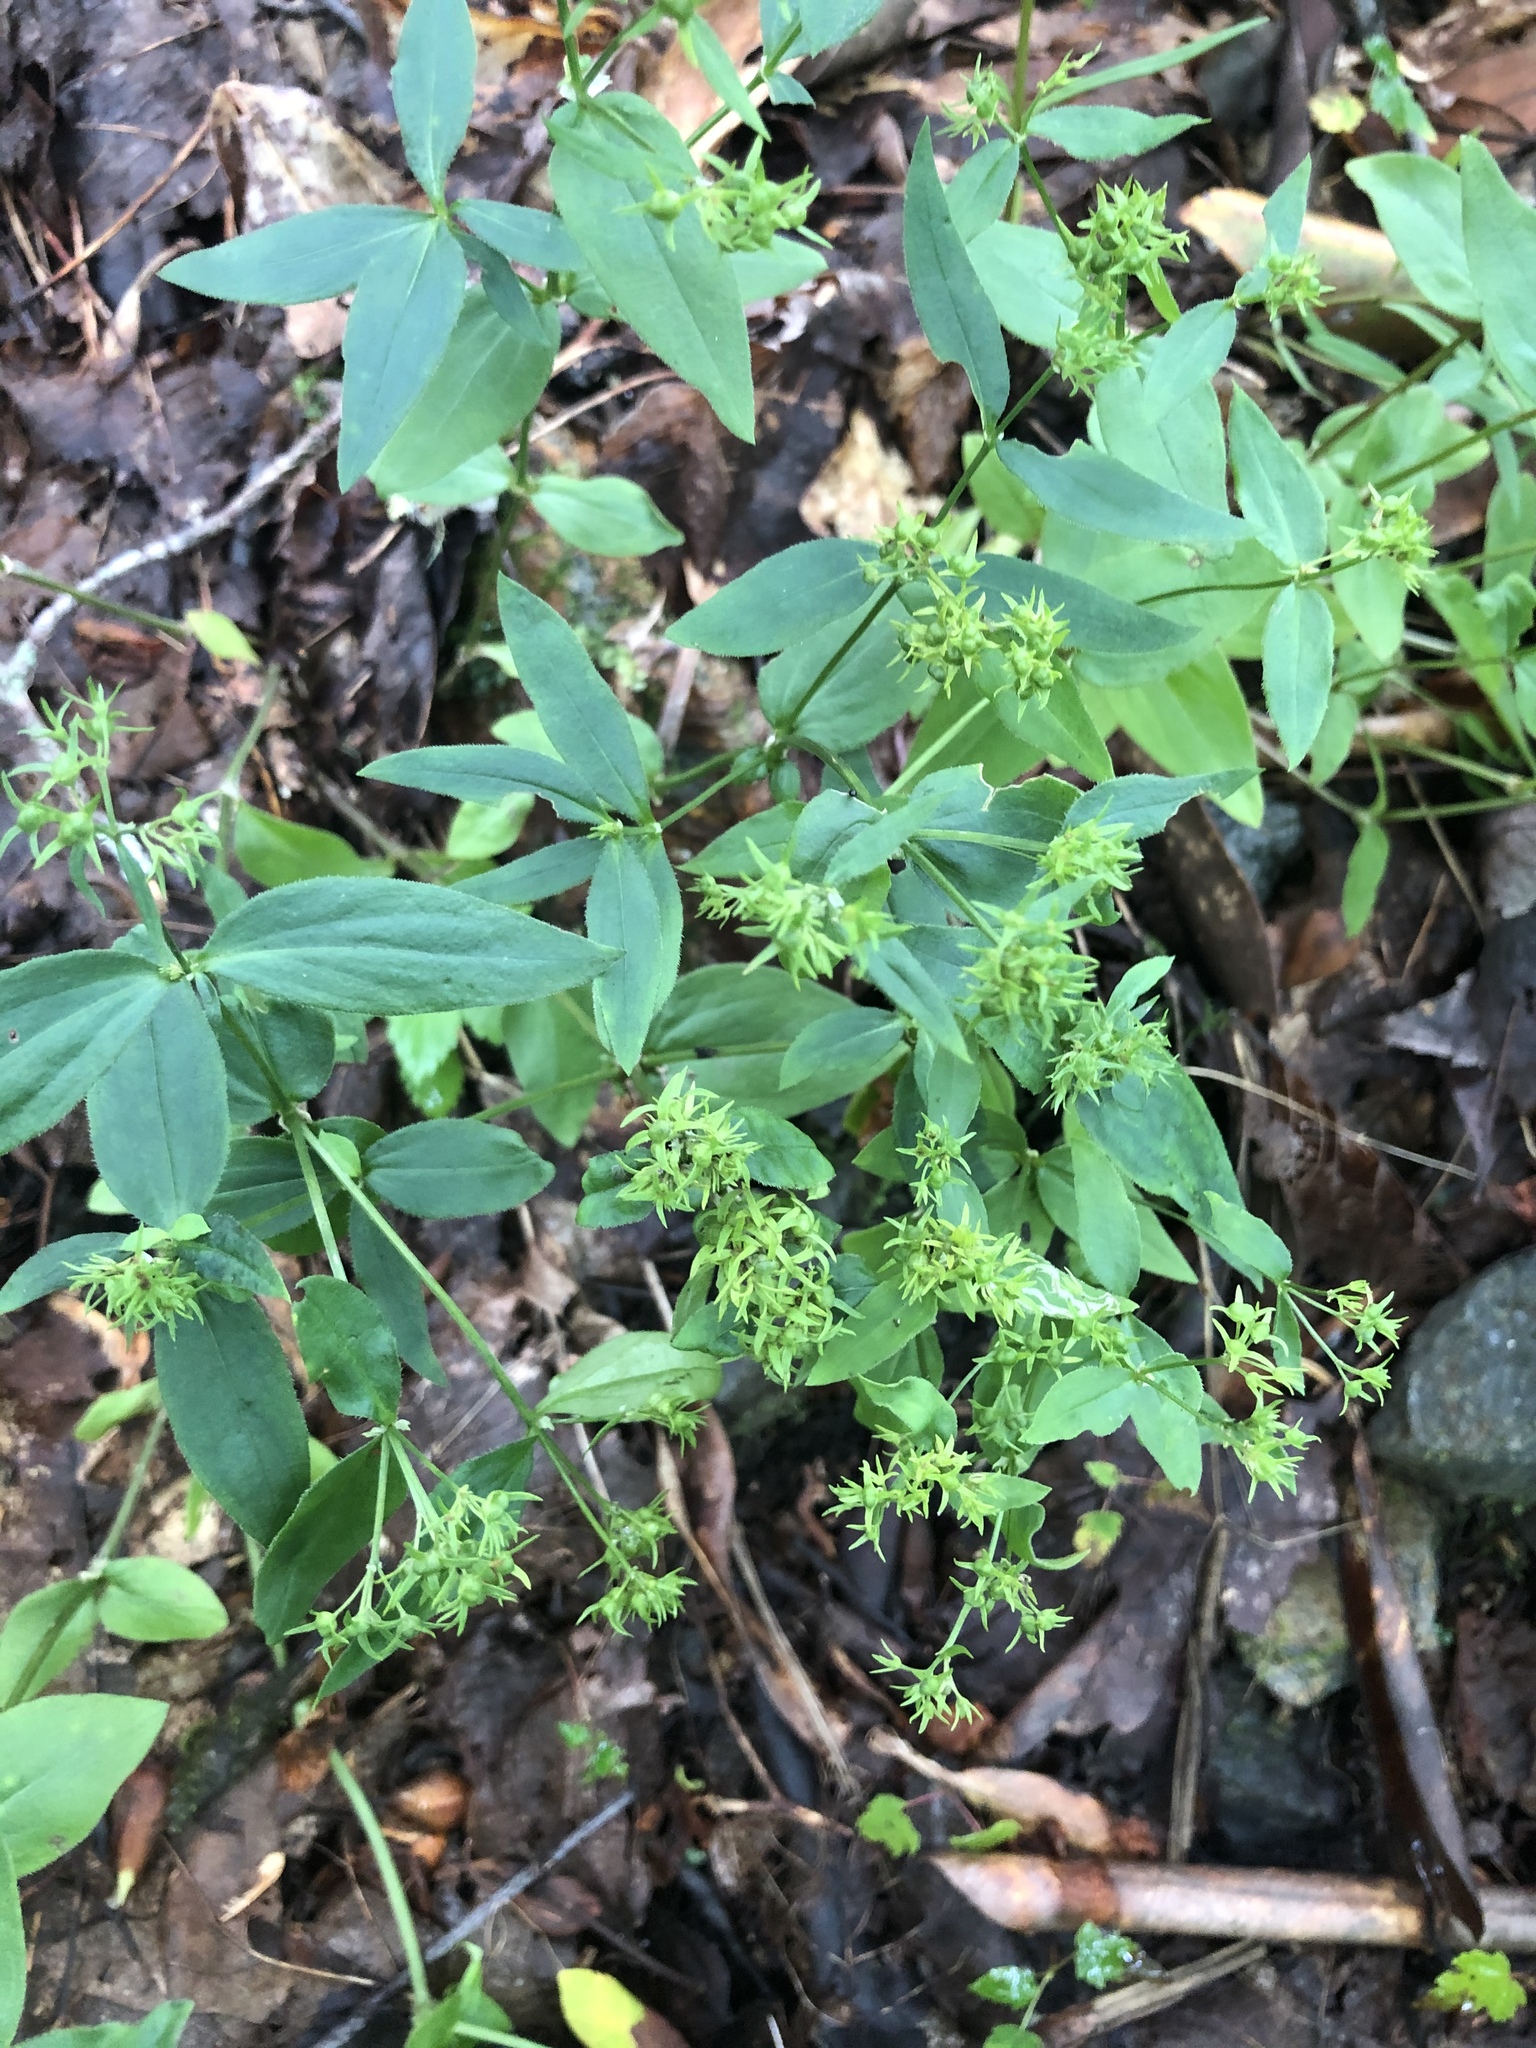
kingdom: Plantae
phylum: Tracheophyta
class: Magnoliopsida
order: Gentianales
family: Rubiaceae
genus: Houstonia
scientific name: Houstonia purpurea
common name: Summer bluet
